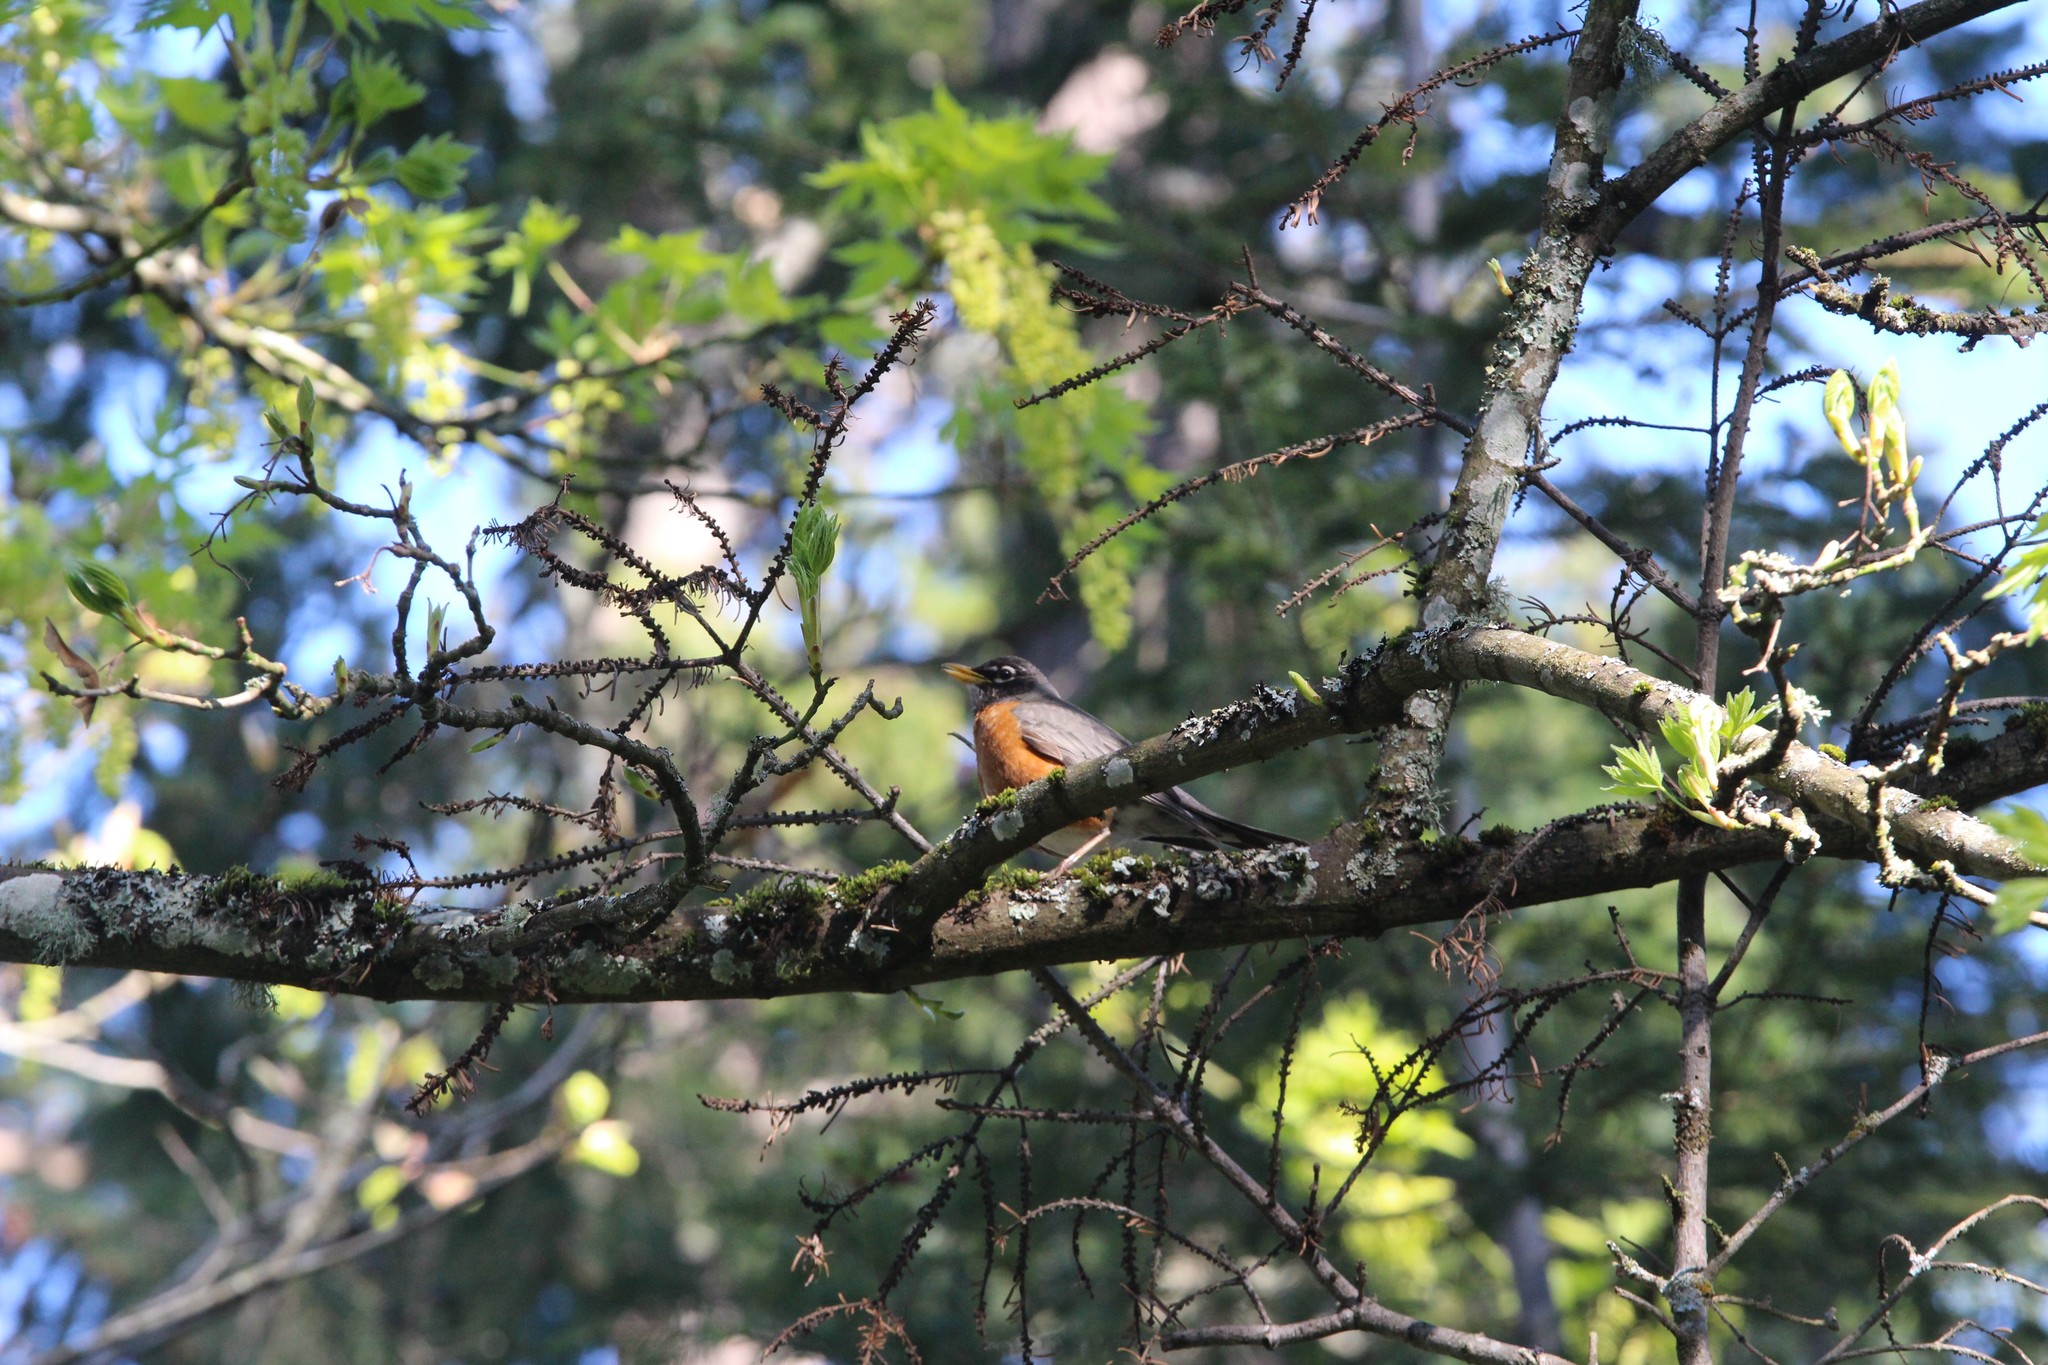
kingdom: Animalia
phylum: Chordata
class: Aves
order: Passeriformes
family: Turdidae
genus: Turdus
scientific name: Turdus migratorius
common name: American robin
